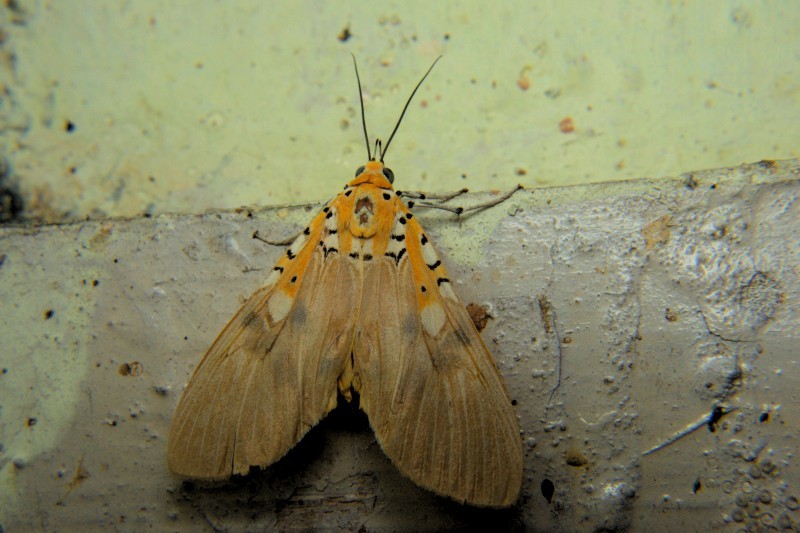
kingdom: Animalia
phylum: Arthropoda
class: Insecta
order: Lepidoptera
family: Erebidae
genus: Asota
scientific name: Asota ficus
